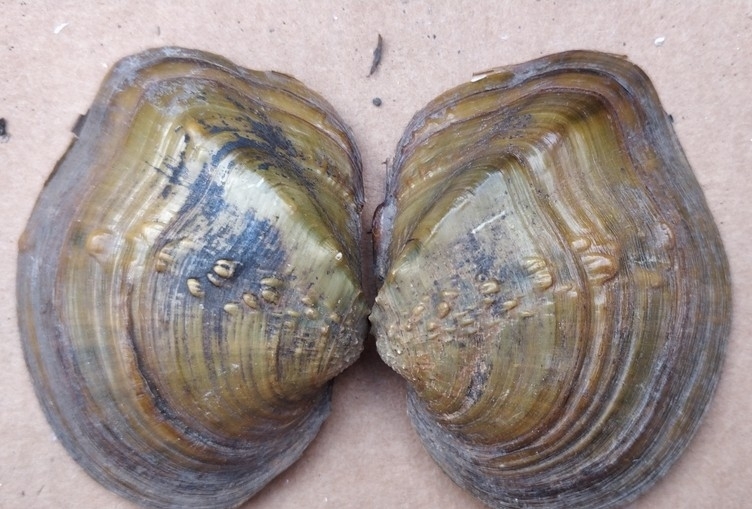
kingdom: Animalia
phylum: Mollusca
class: Bivalvia
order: Unionida
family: Unionidae
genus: Quadrula
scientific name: Quadrula quadrula
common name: Mapleleaf
